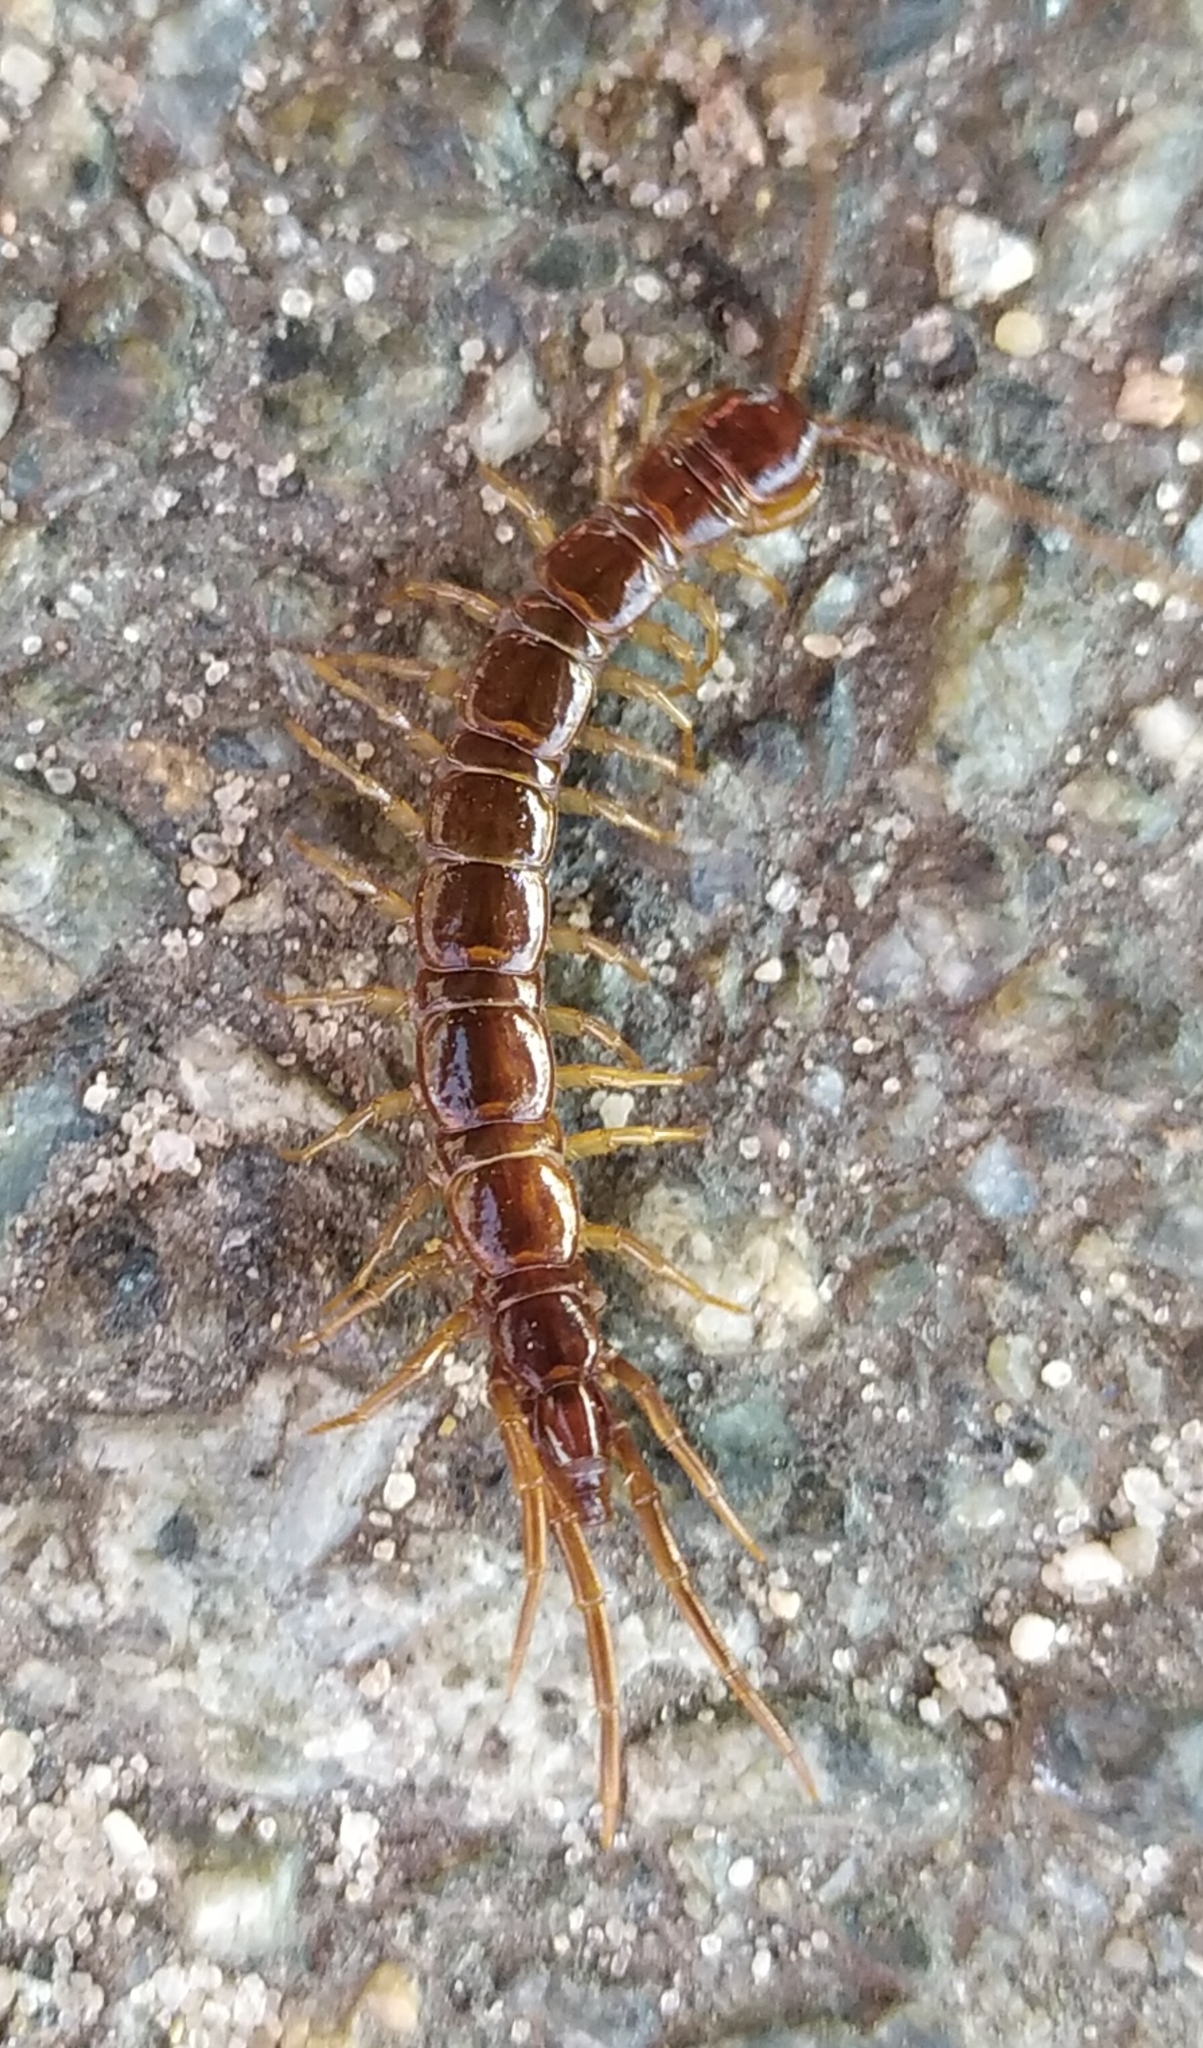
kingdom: Animalia
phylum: Arthropoda
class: Chilopoda
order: Lithobiomorpha
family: Lithobiidae
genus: Lithobius
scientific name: Lithobius forficatus
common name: Centipede
